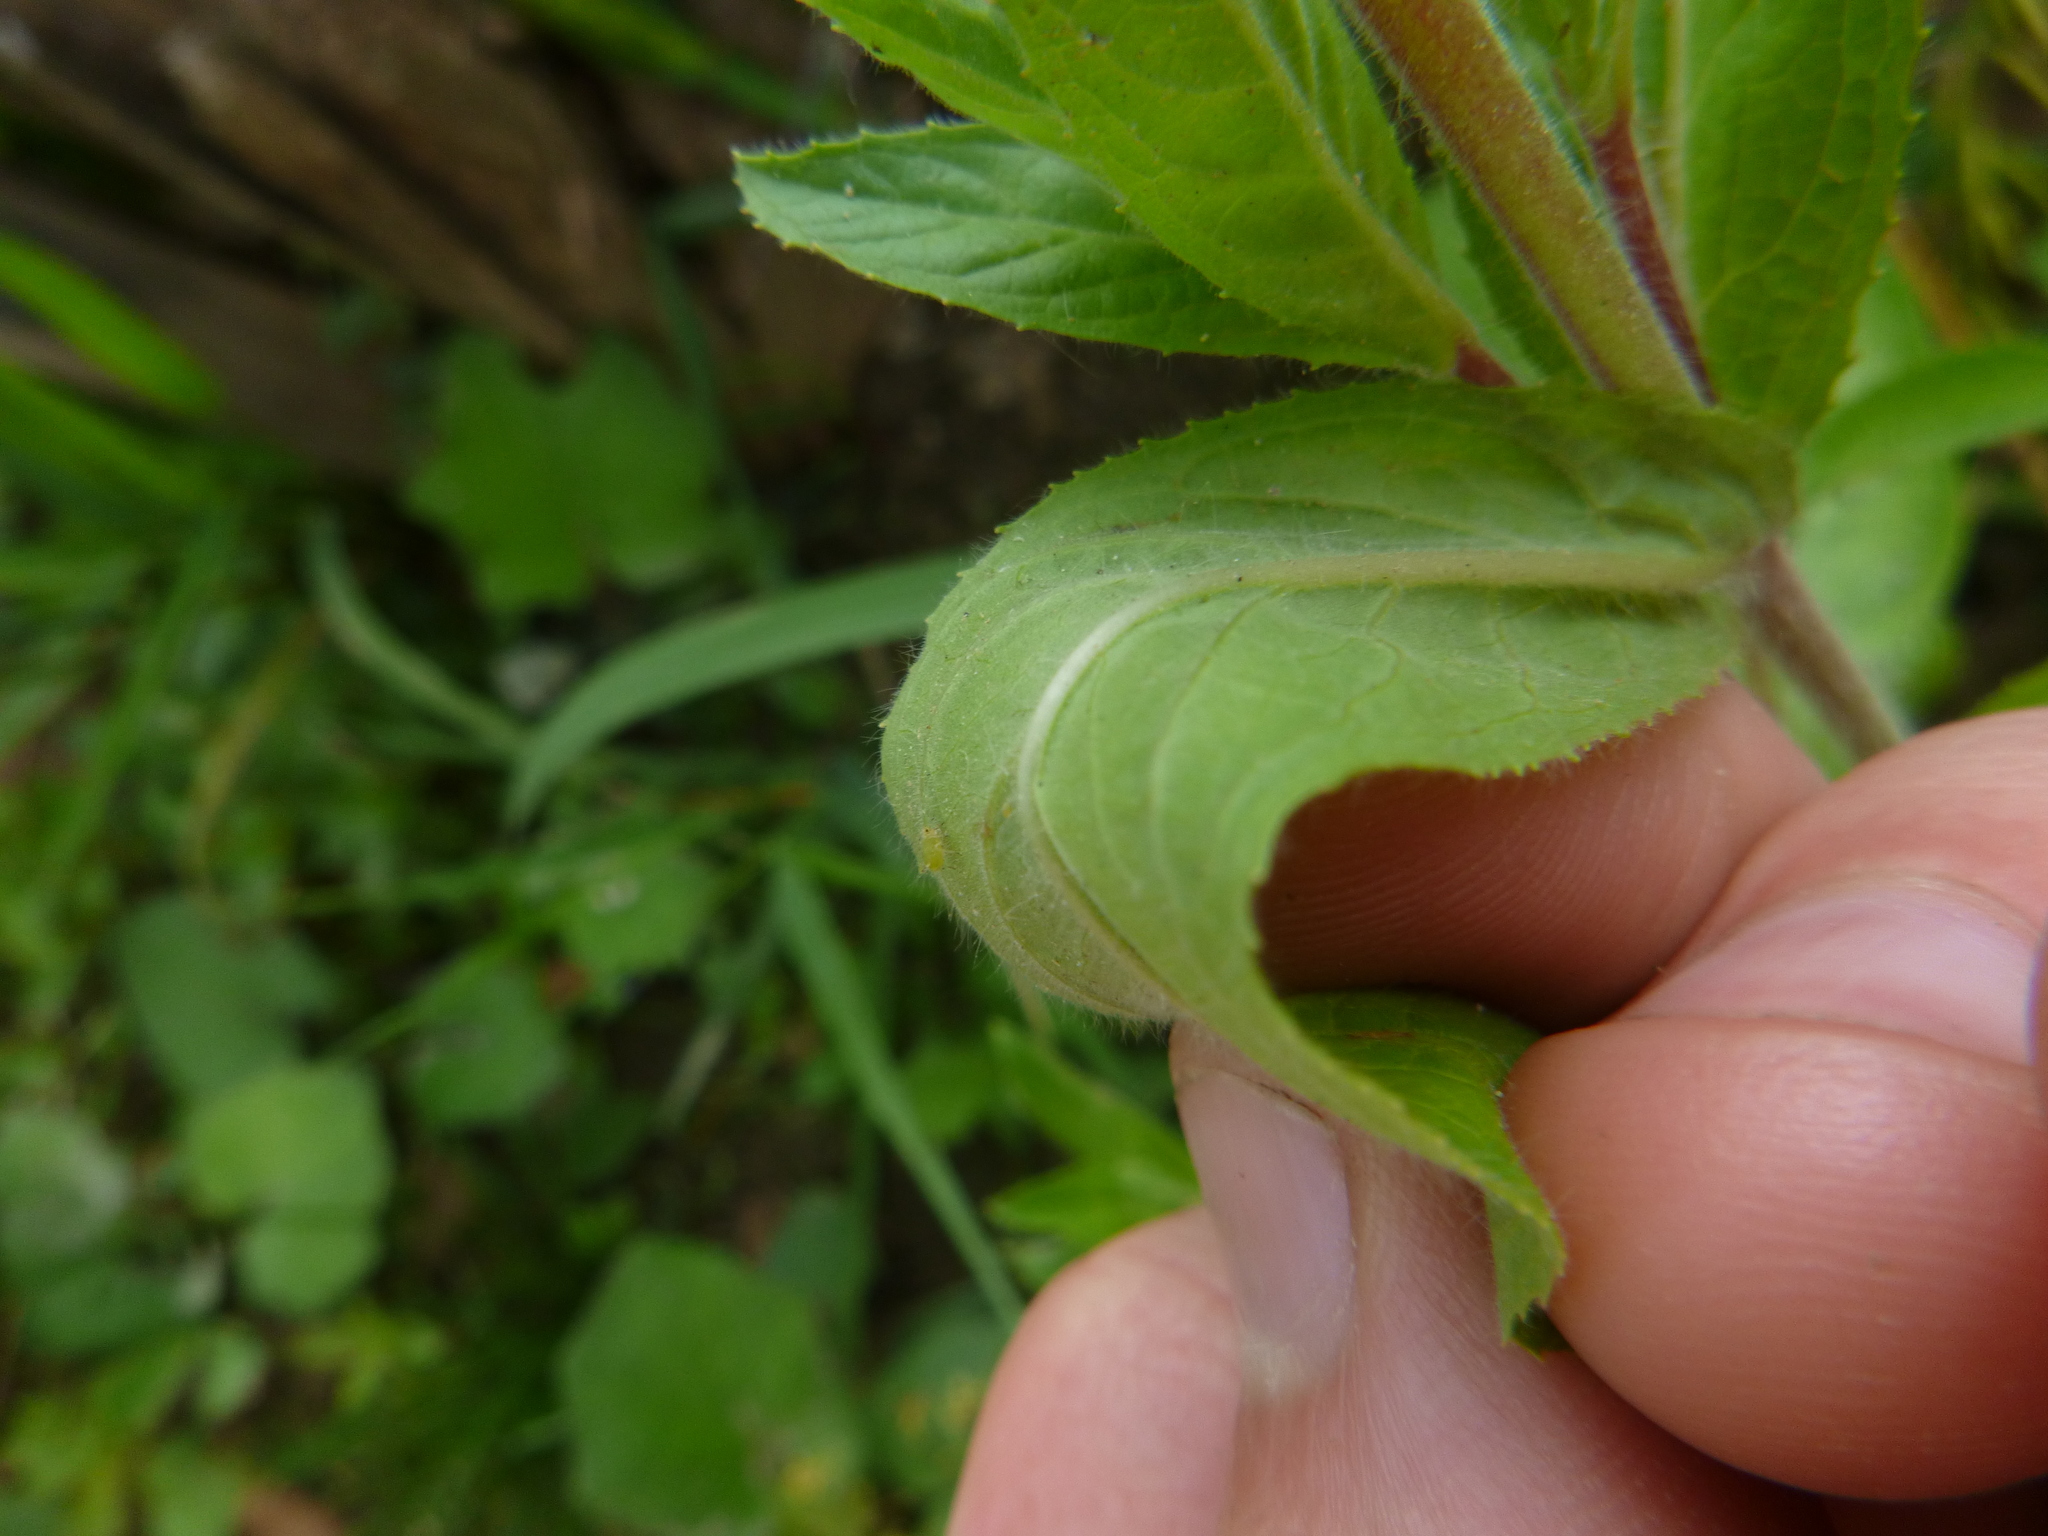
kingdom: Plantae
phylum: Tracheophyta
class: Magnoliopsida
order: Myrtales
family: Onagraceae
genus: Epilobium
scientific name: Epilobium hirsutum
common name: Great willowherb
